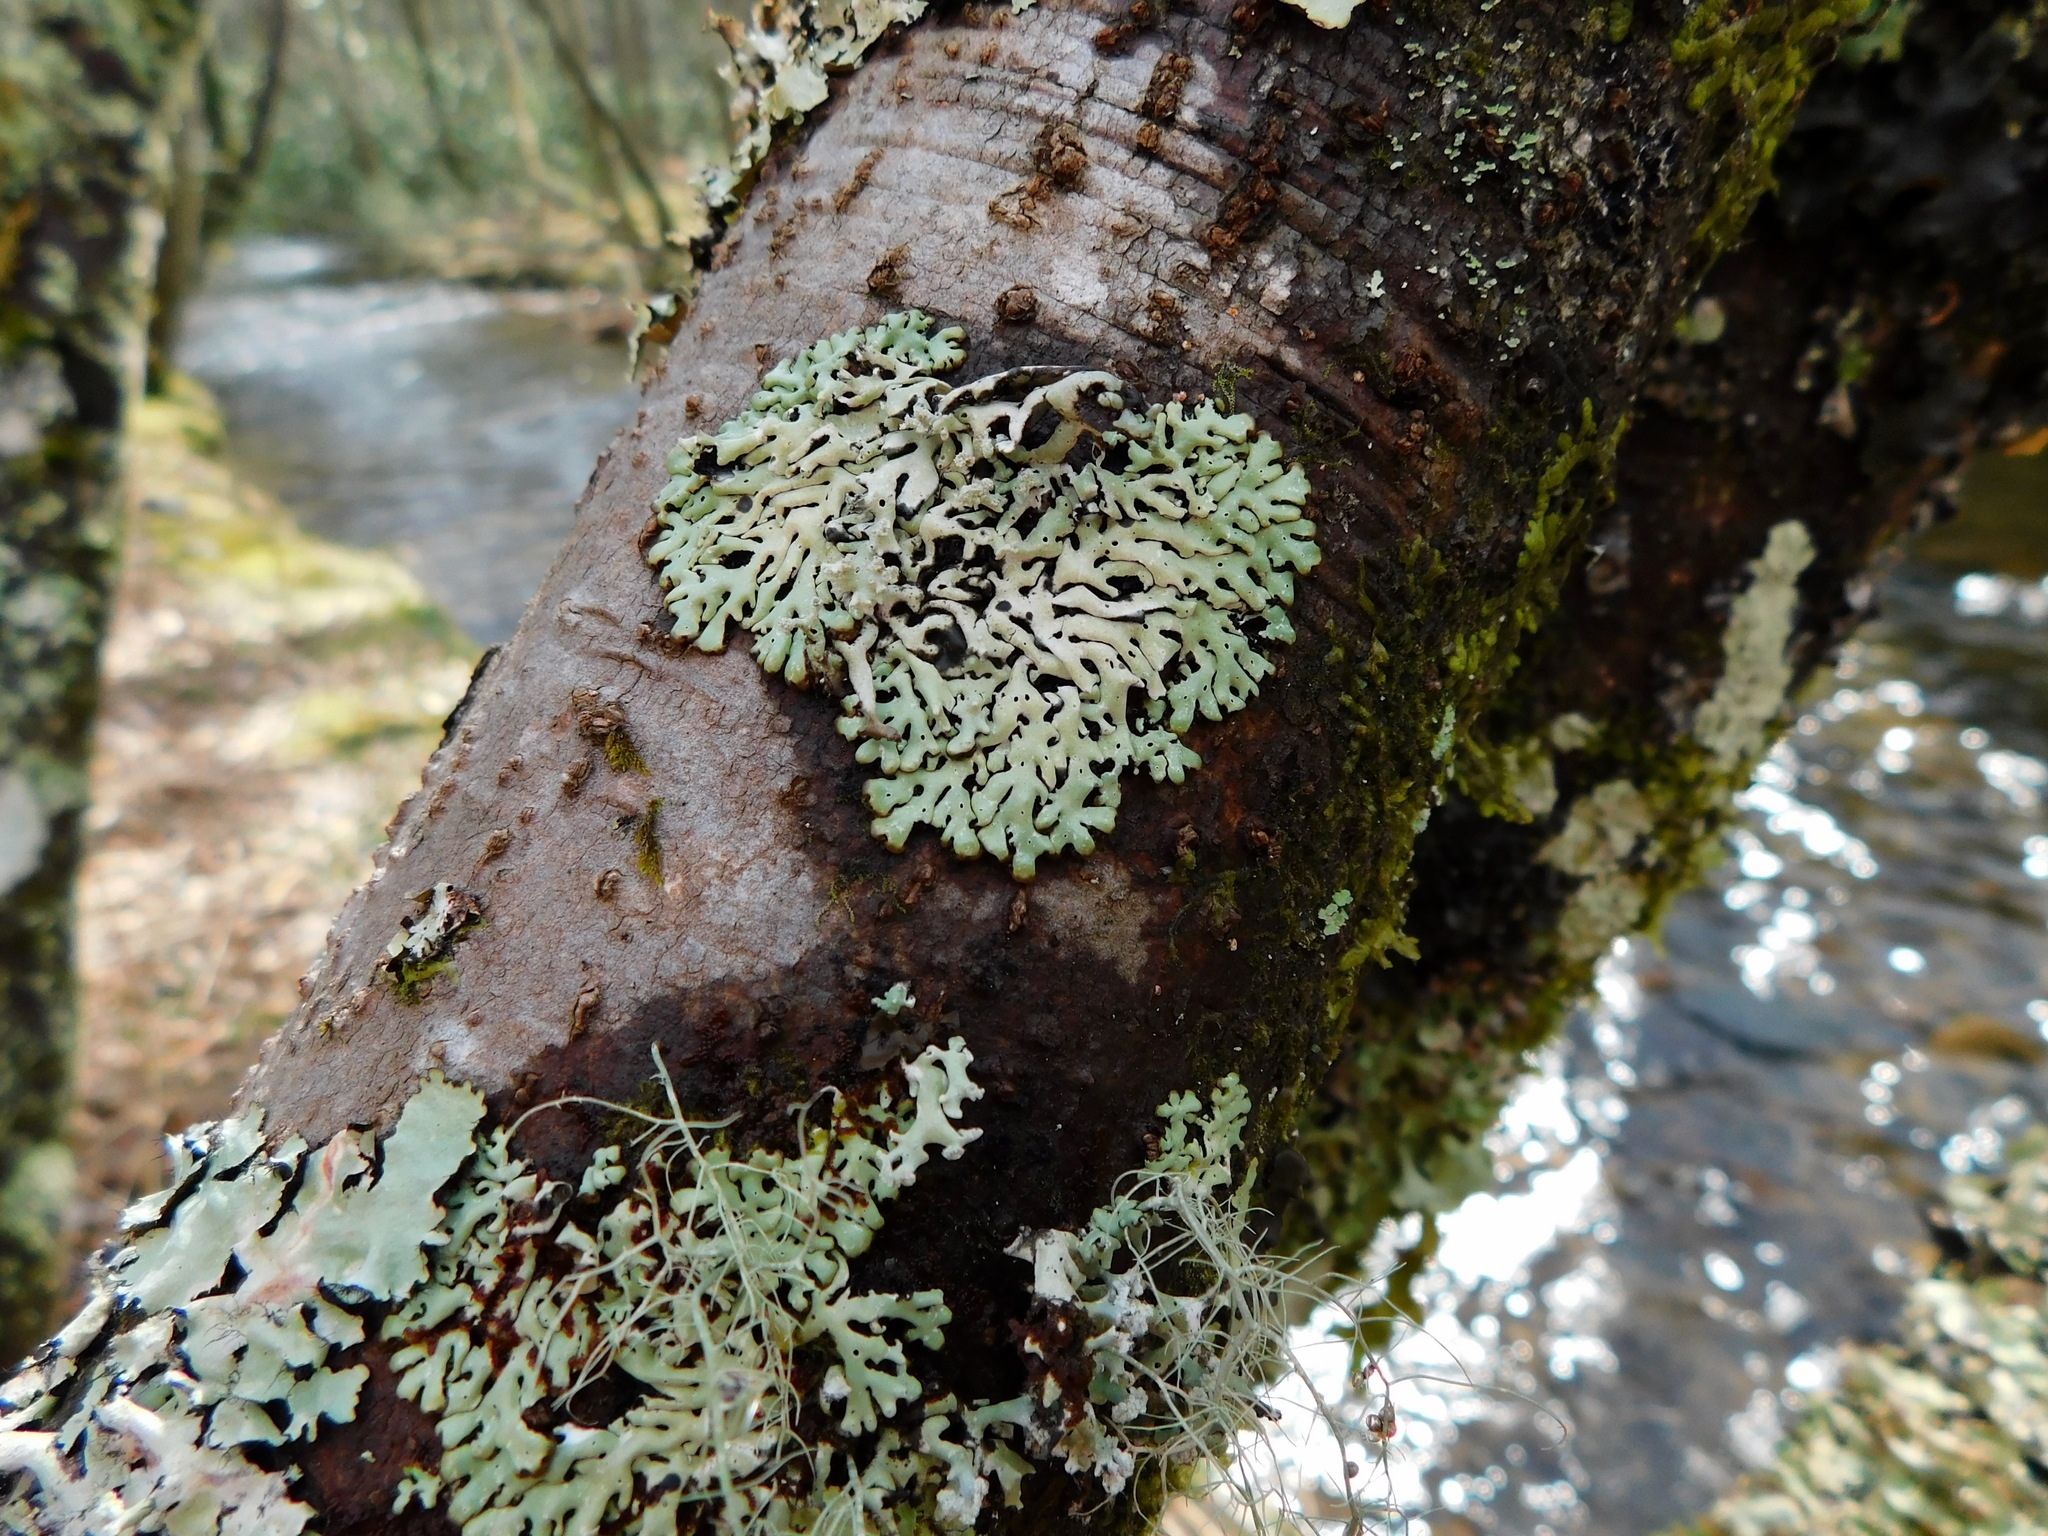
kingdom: Fungi
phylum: Ascomycota
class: Lecanoromycetes
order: Lecanorales
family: Parmeliaceae
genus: Menegazzia
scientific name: Menegazzia subsimilis
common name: Tree flute lichen
